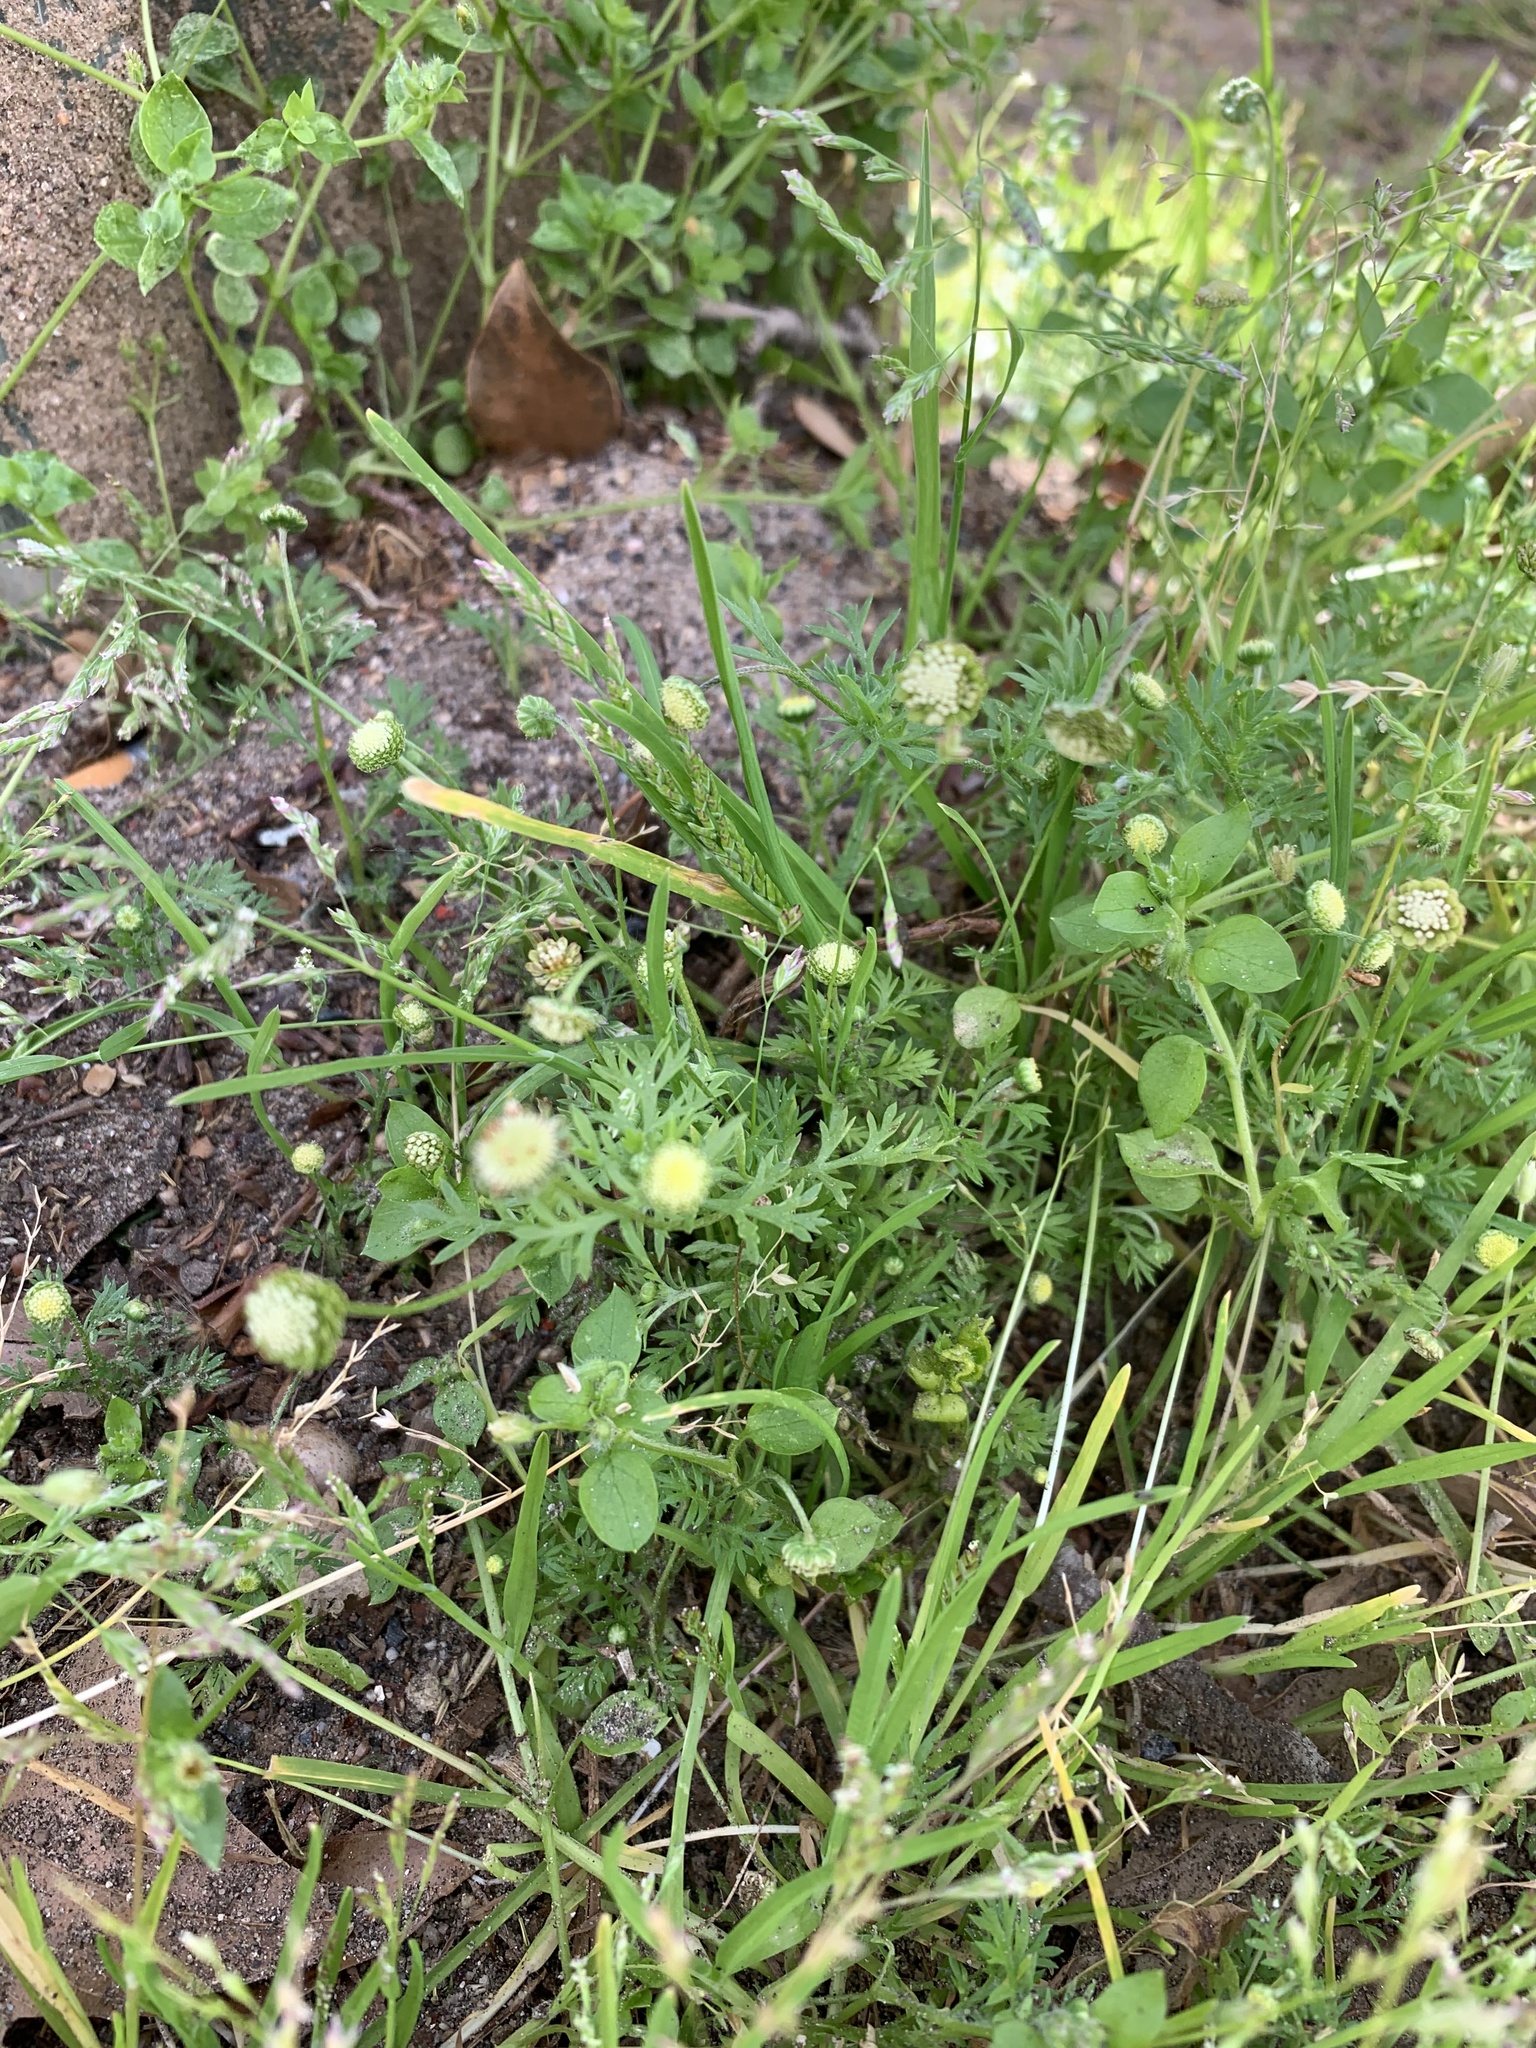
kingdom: Plantae
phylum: Tracheophyta
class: Magnoliopsida
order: Asterales
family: Asteraceae
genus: Cotula
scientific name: Cotula australis
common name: Australian waterbuttons
